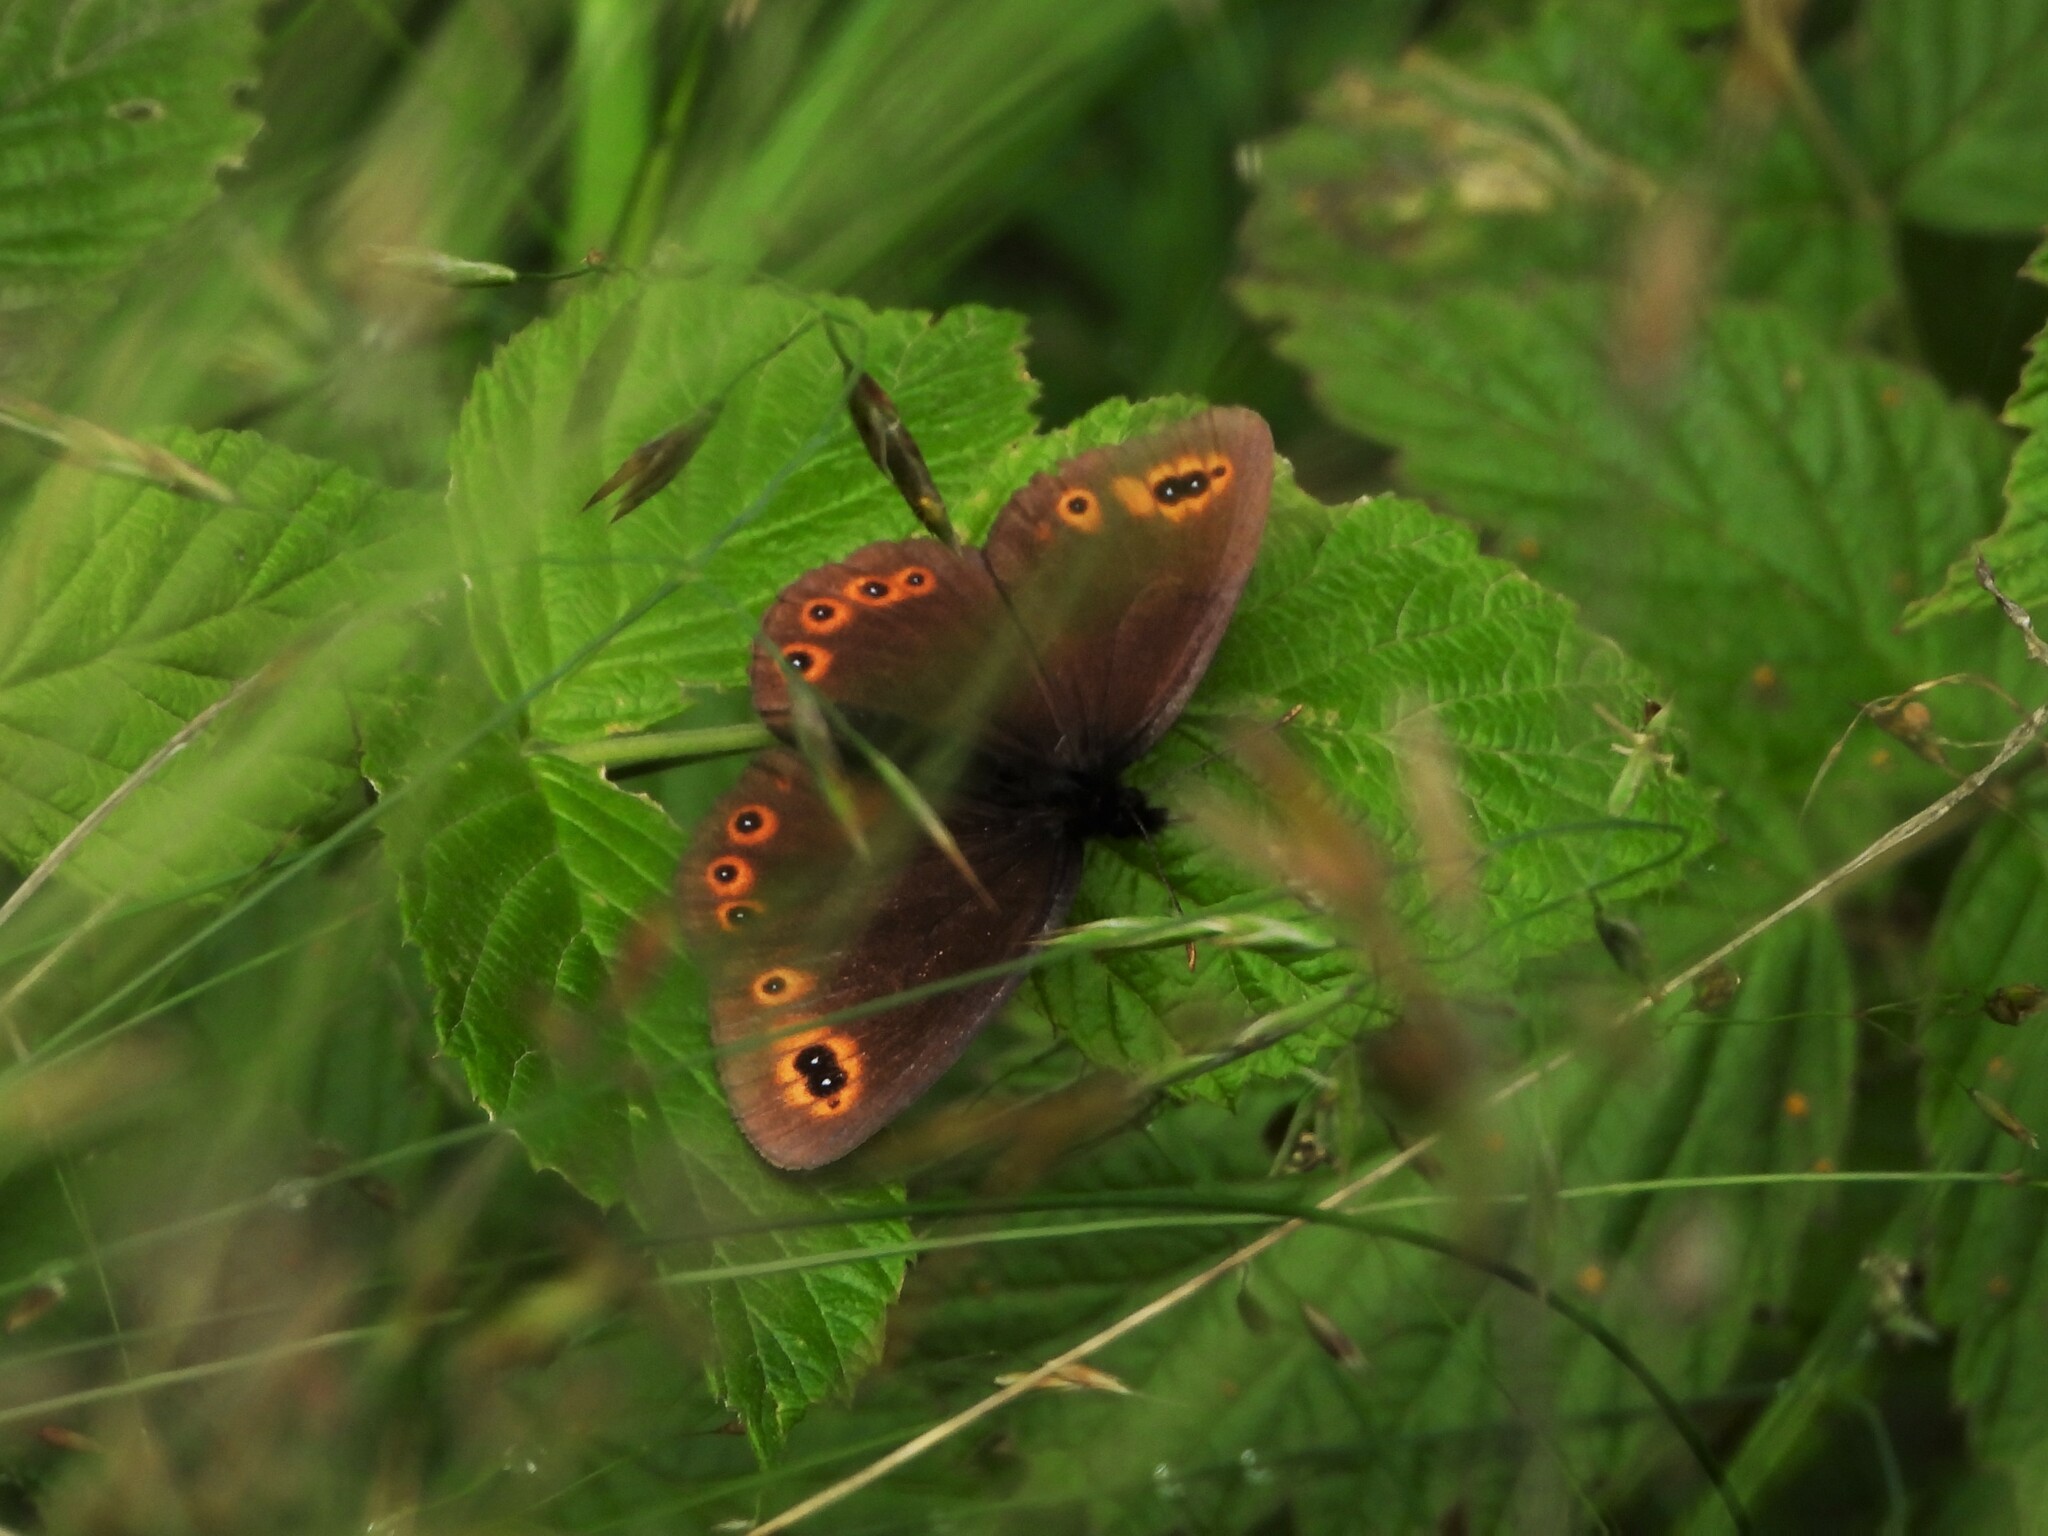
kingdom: Animalia
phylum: Arthropoda
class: Insecta
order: Lepidoptera
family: Nymphalidae
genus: Erebia
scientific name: Erebia medusa
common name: Woodland ringlet
